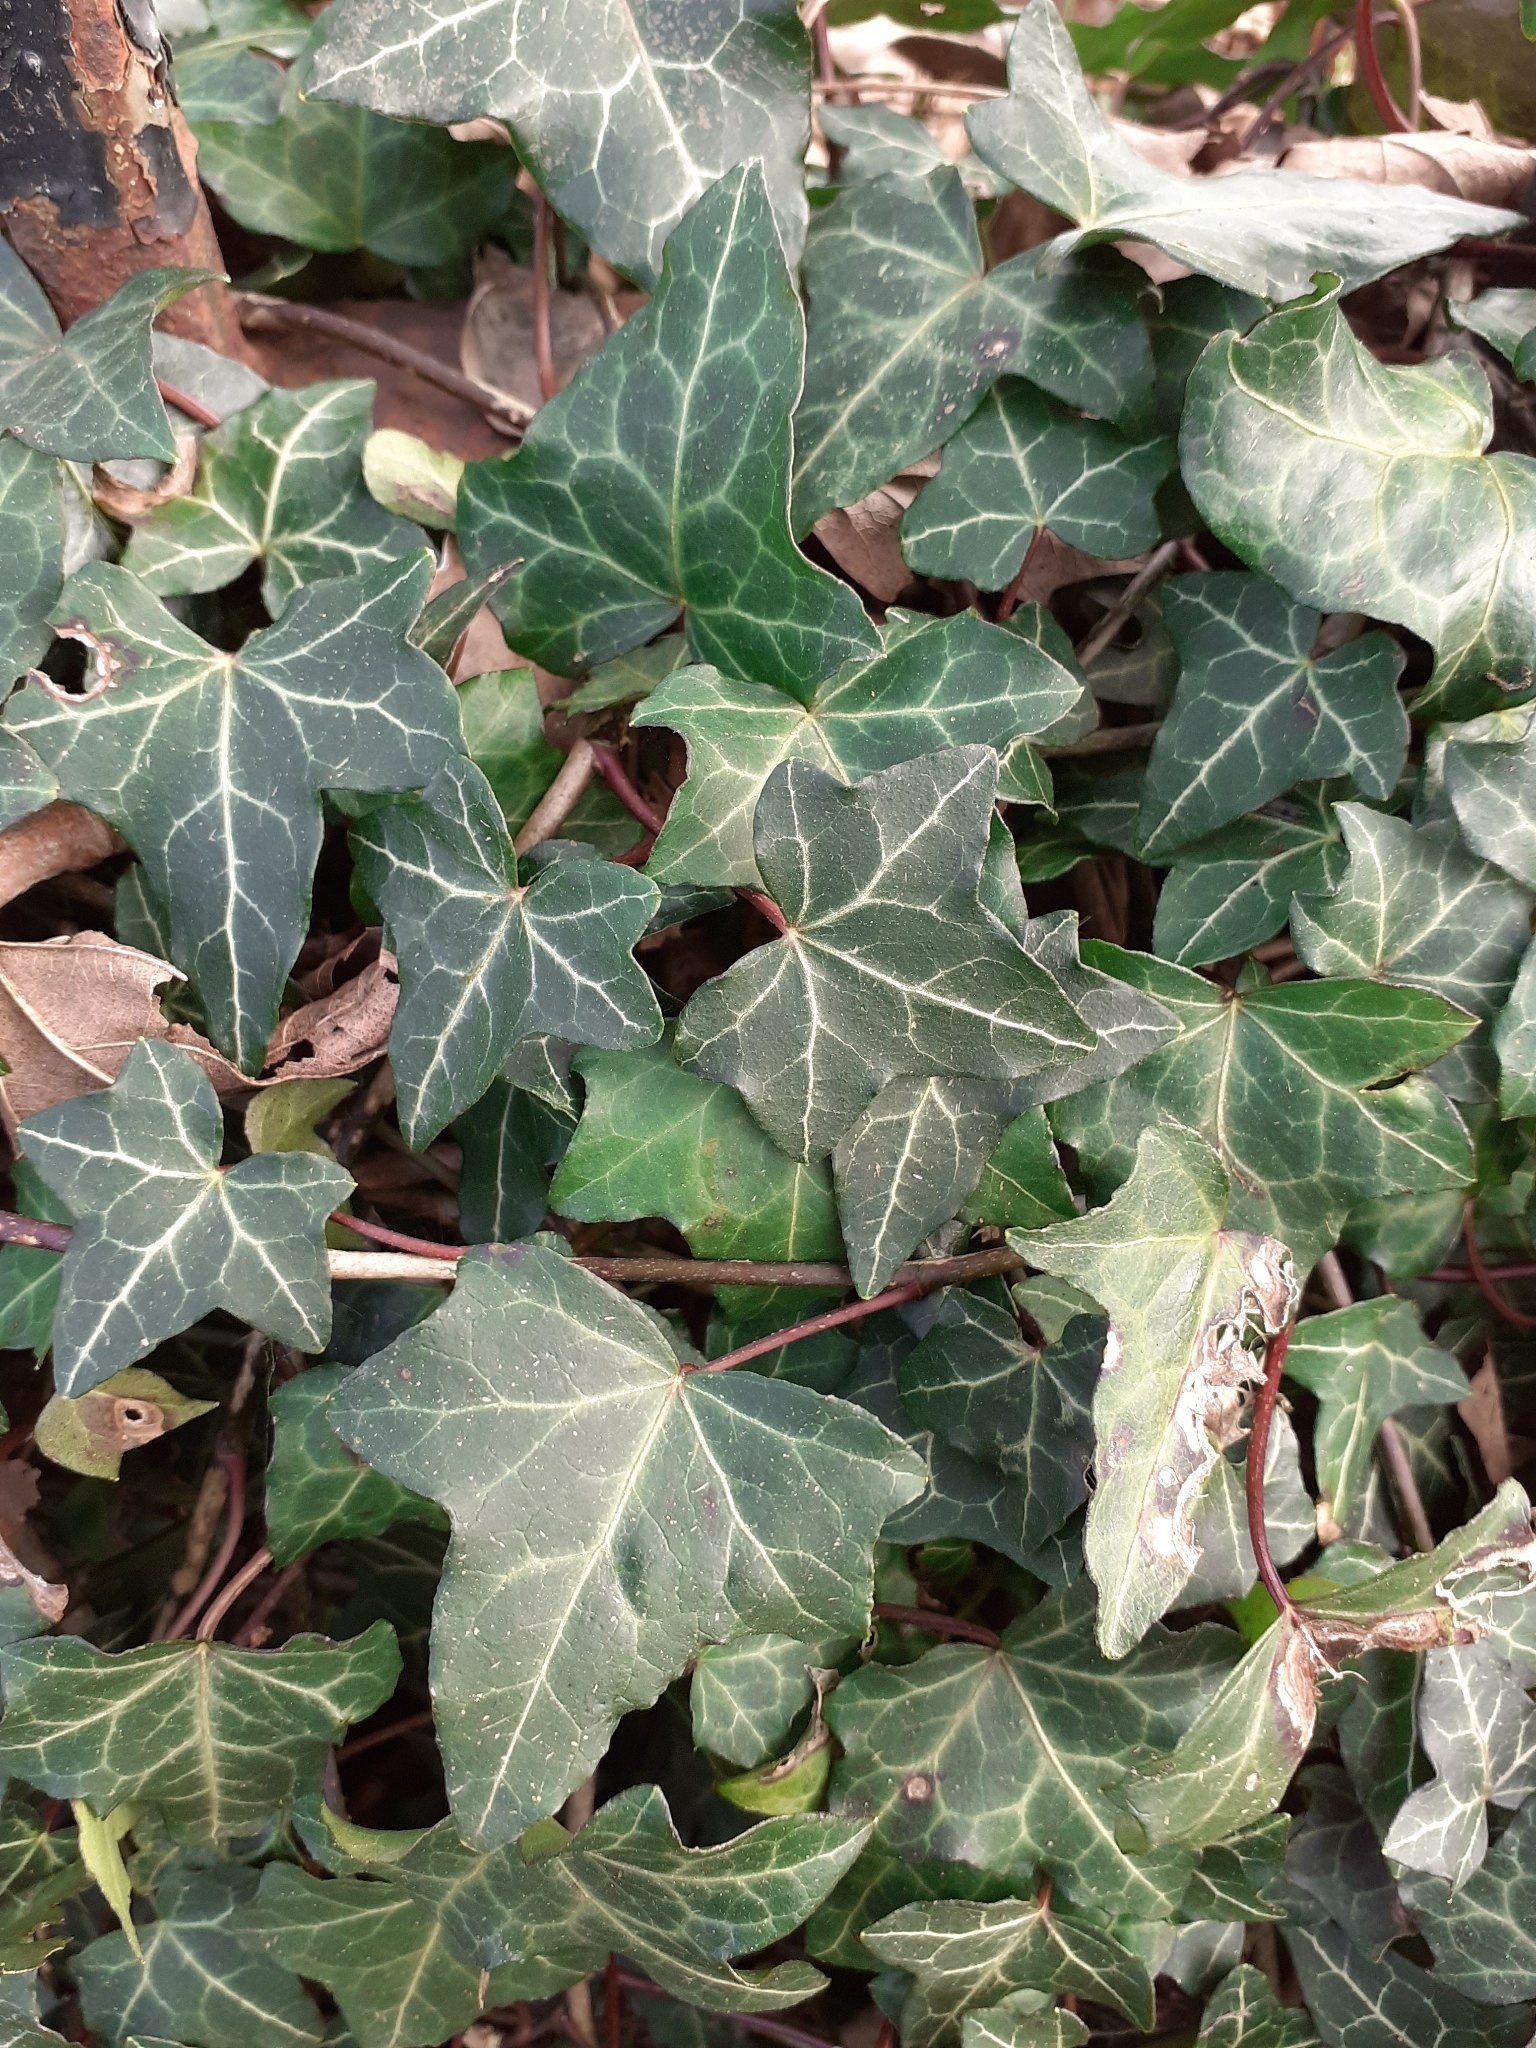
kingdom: Plantae
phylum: Tracheophyta
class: Magnoliopsida
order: Apiales
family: Araliaceae
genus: Hedera
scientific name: Hedera helix
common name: Ivy
